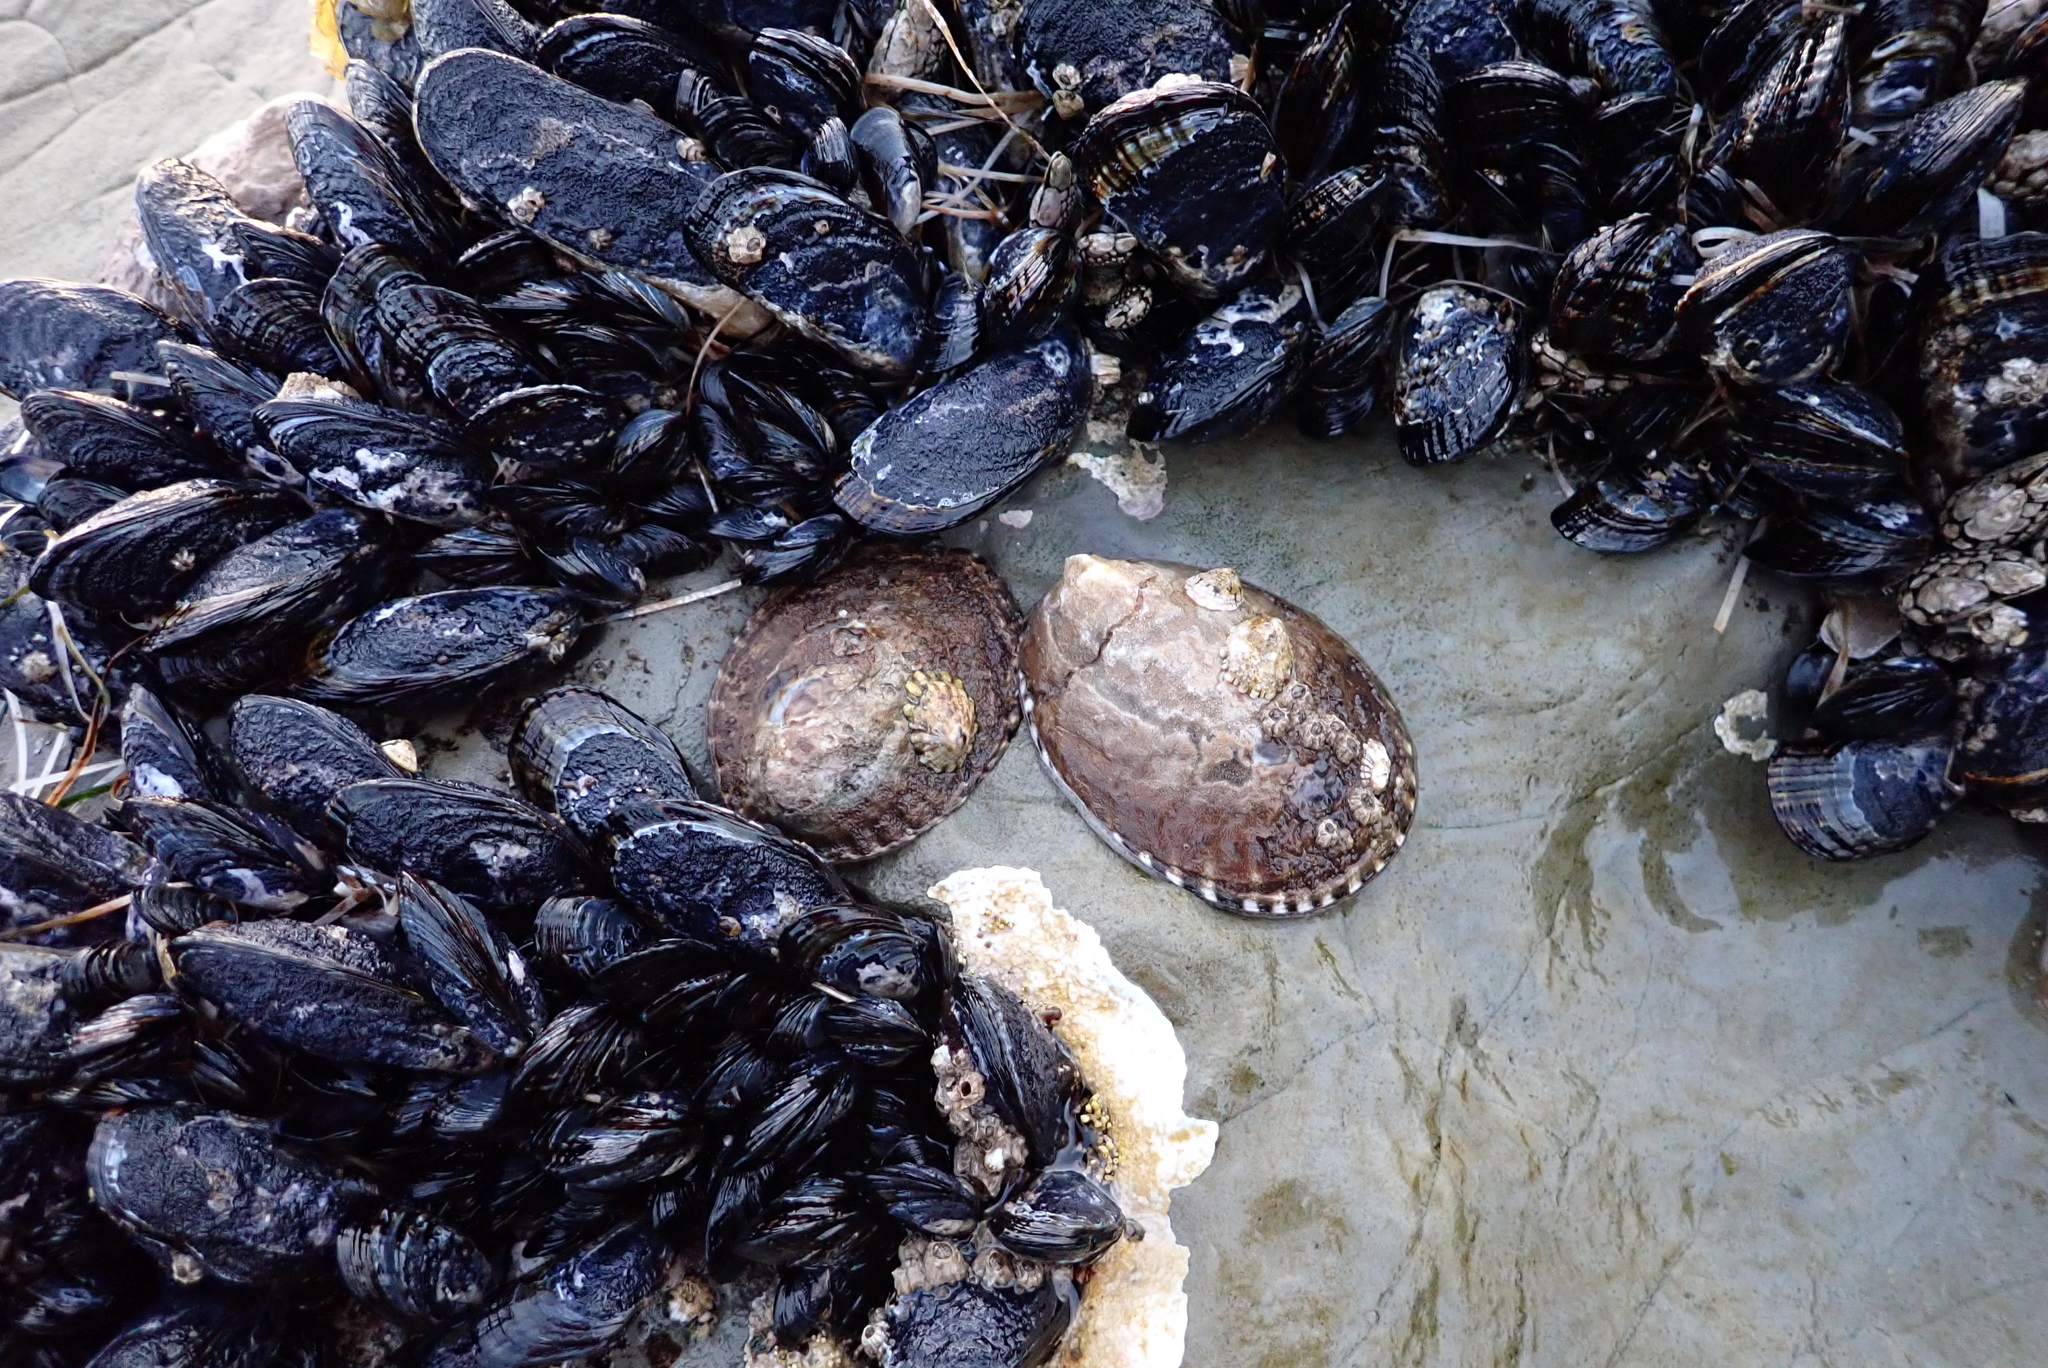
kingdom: Animalia
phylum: Mollusca
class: Gastropoda
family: Lottiidae
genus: Lottia
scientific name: Lottia gigantea
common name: Owl limpet
